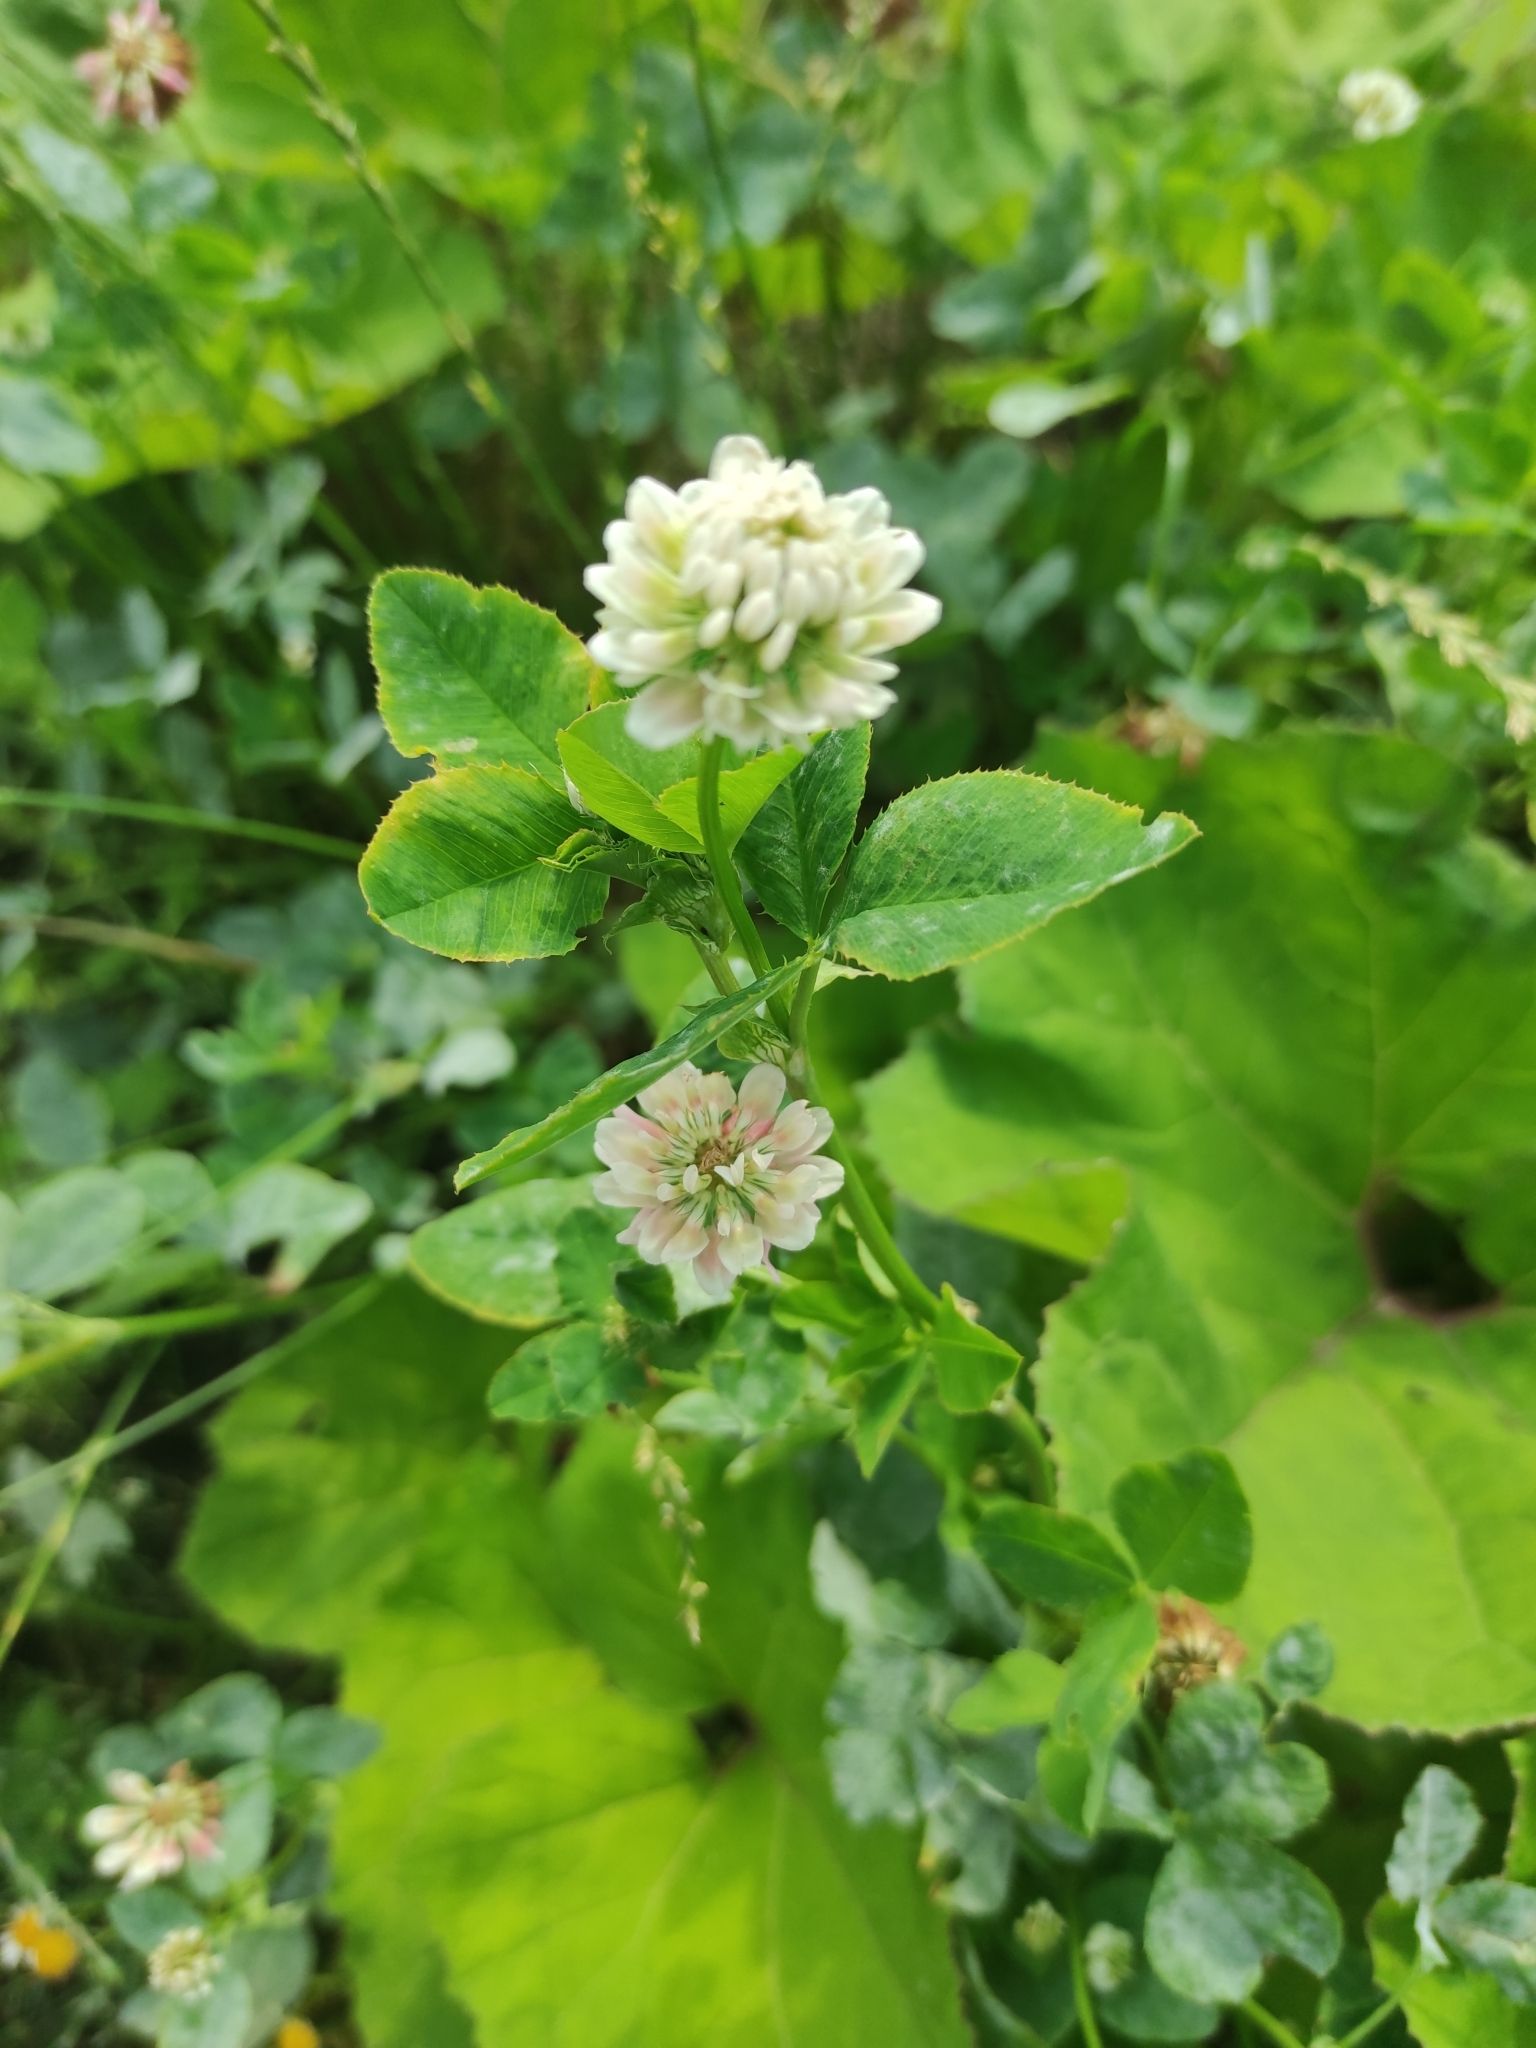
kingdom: Plantae
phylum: Tracheophyta
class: Magnoliopsida
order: Fabales
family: Fabaceae
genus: Trifolium
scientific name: Trifolium hybridum
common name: Alsike clover
